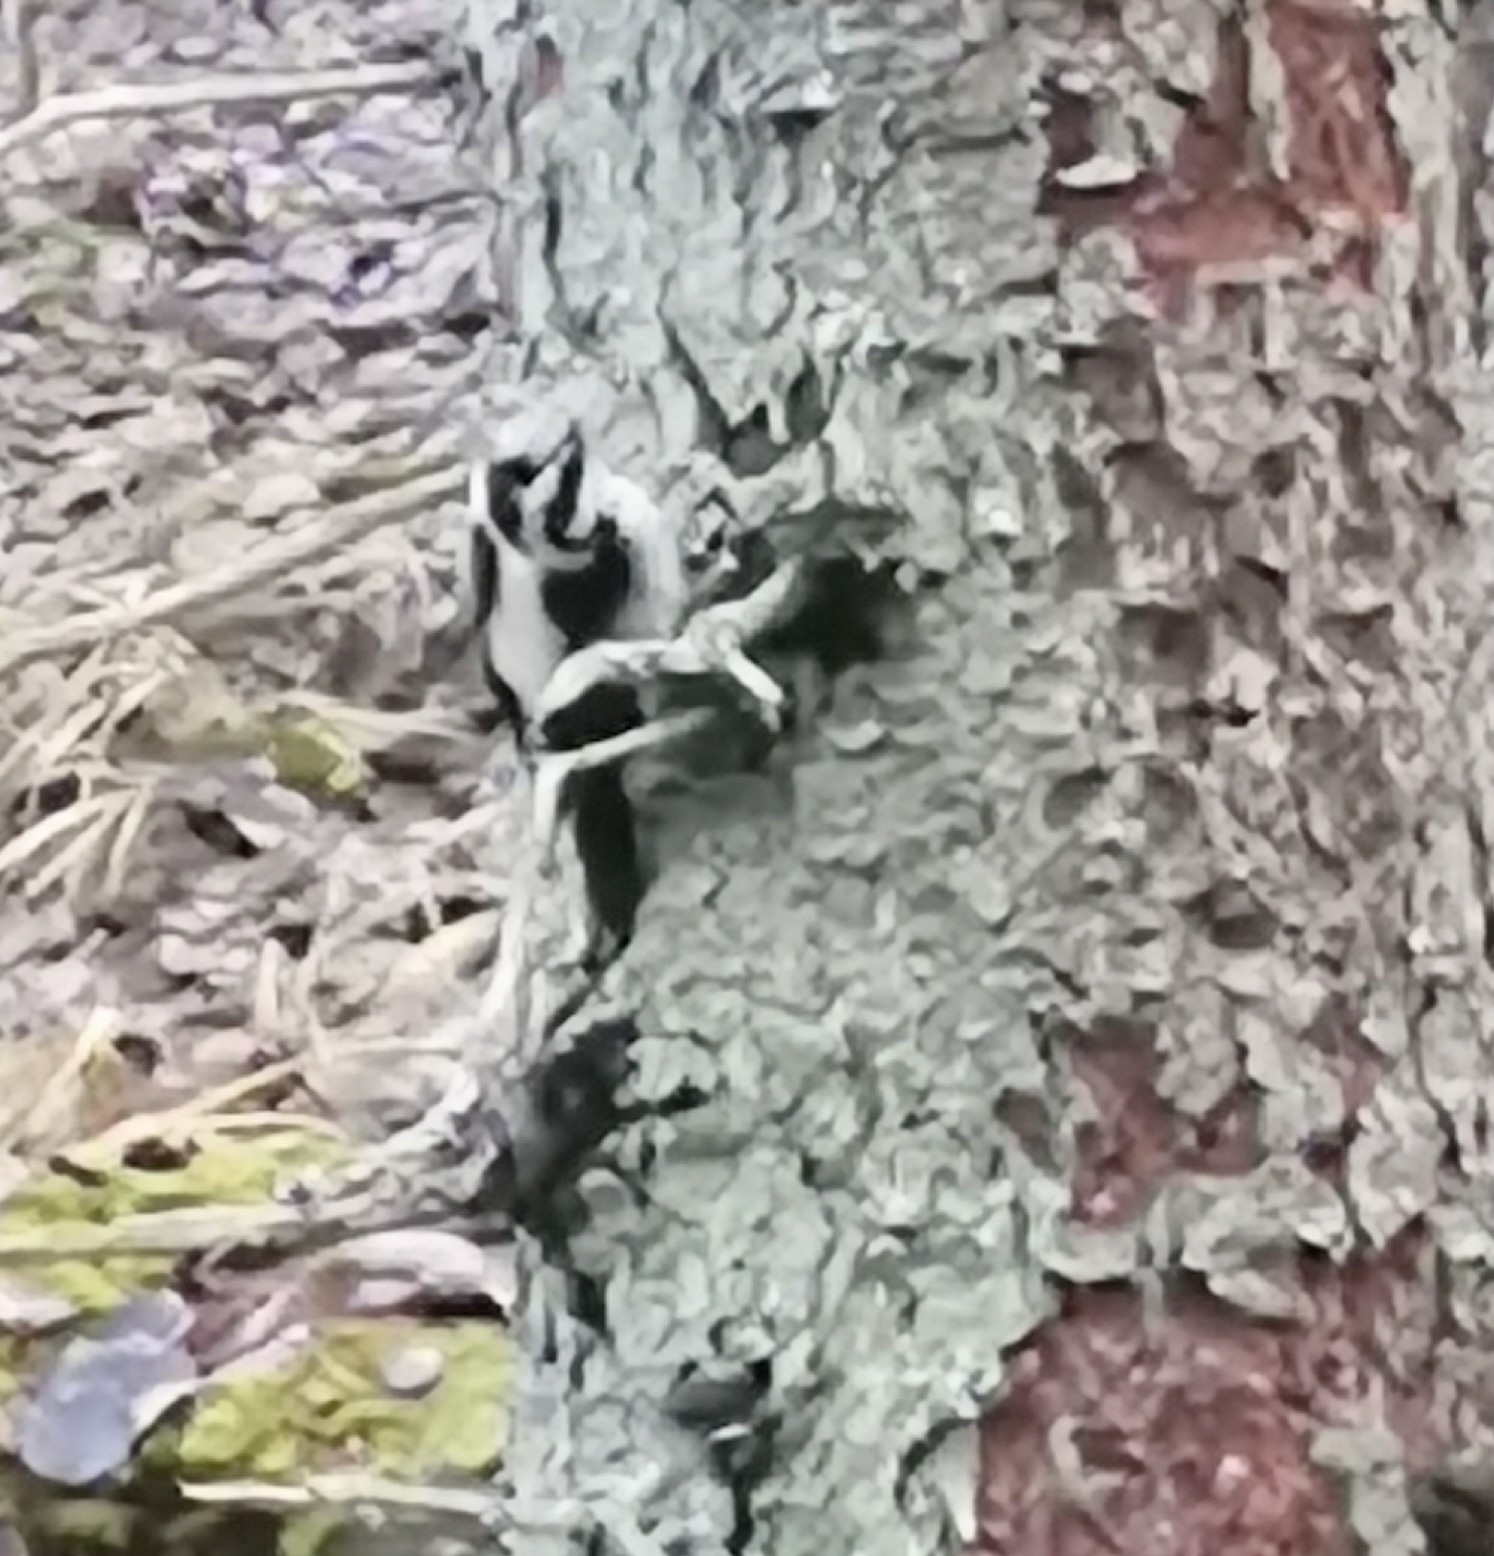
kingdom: Animalia
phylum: Chordata
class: Aves
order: Piciformes
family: Picidae
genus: Picoides
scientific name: Picoides tridactylus
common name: Eurasian three-toed woodpecker
